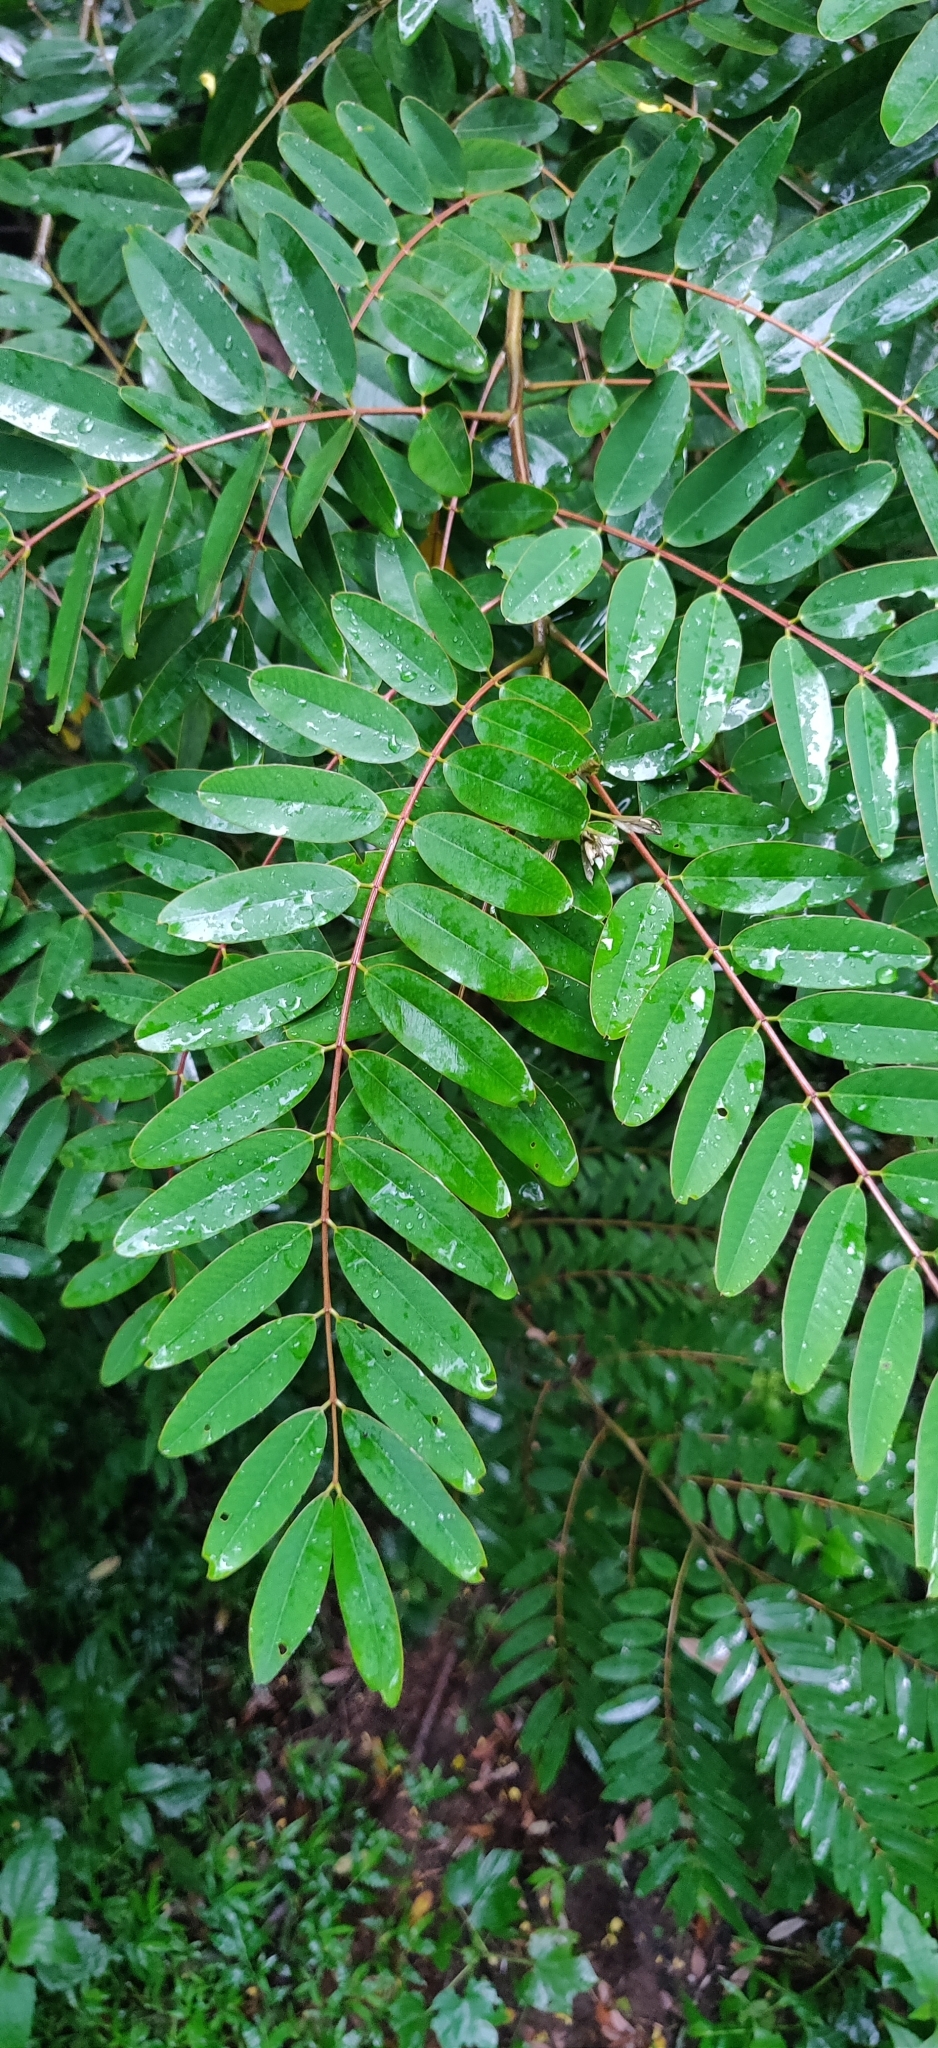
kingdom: Plantae
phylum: Tracheophyta
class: Magnoliopsida
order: Fabales
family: Fabaceae
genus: Senna
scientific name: Senna siamea
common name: Siamese cassia
